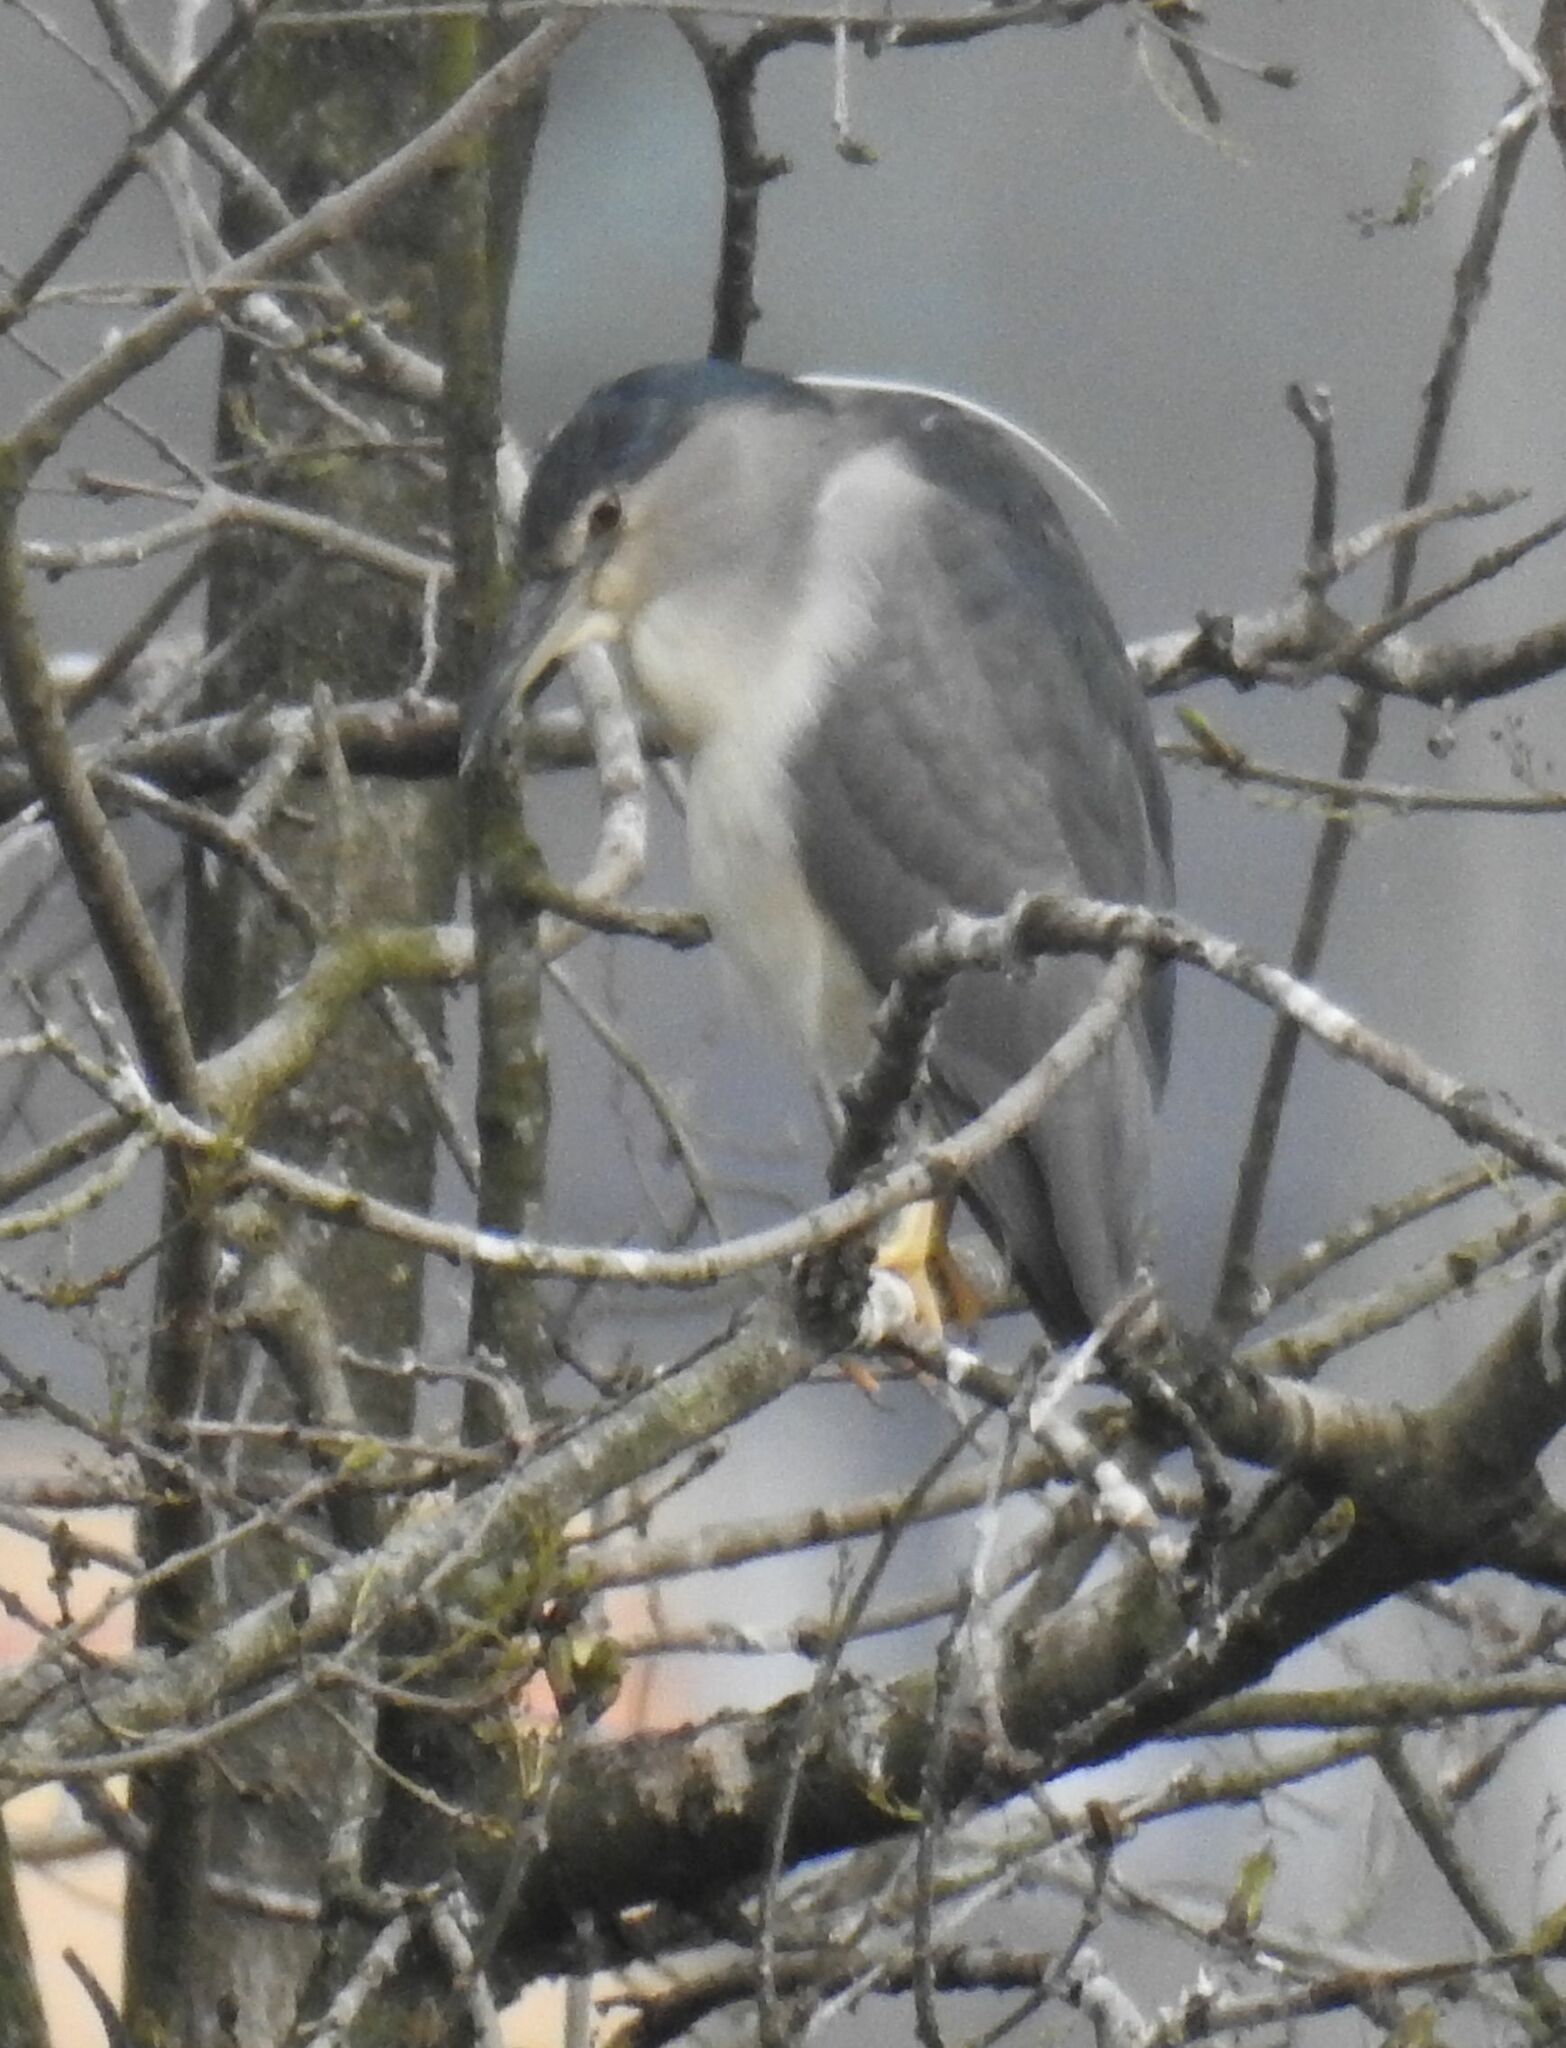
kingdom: Animalia
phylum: Chordata
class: Aves
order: Pelecaniformes
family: Ardeidae
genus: Nycticorax
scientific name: Nycticorax nycticorax
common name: Black-crowned night heron
